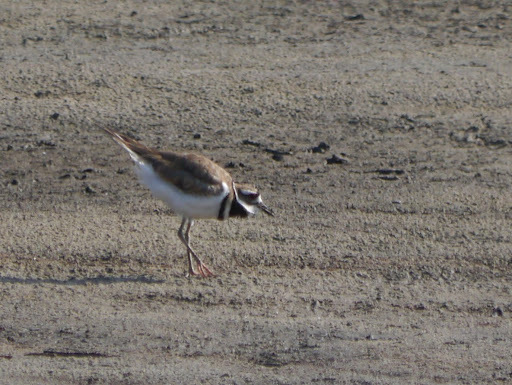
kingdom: Animalia
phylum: Chordata
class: Aves
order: Charadriiformes
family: Charadriidae
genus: Charadrius
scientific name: Charadrius vociferus
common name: Killdeer
